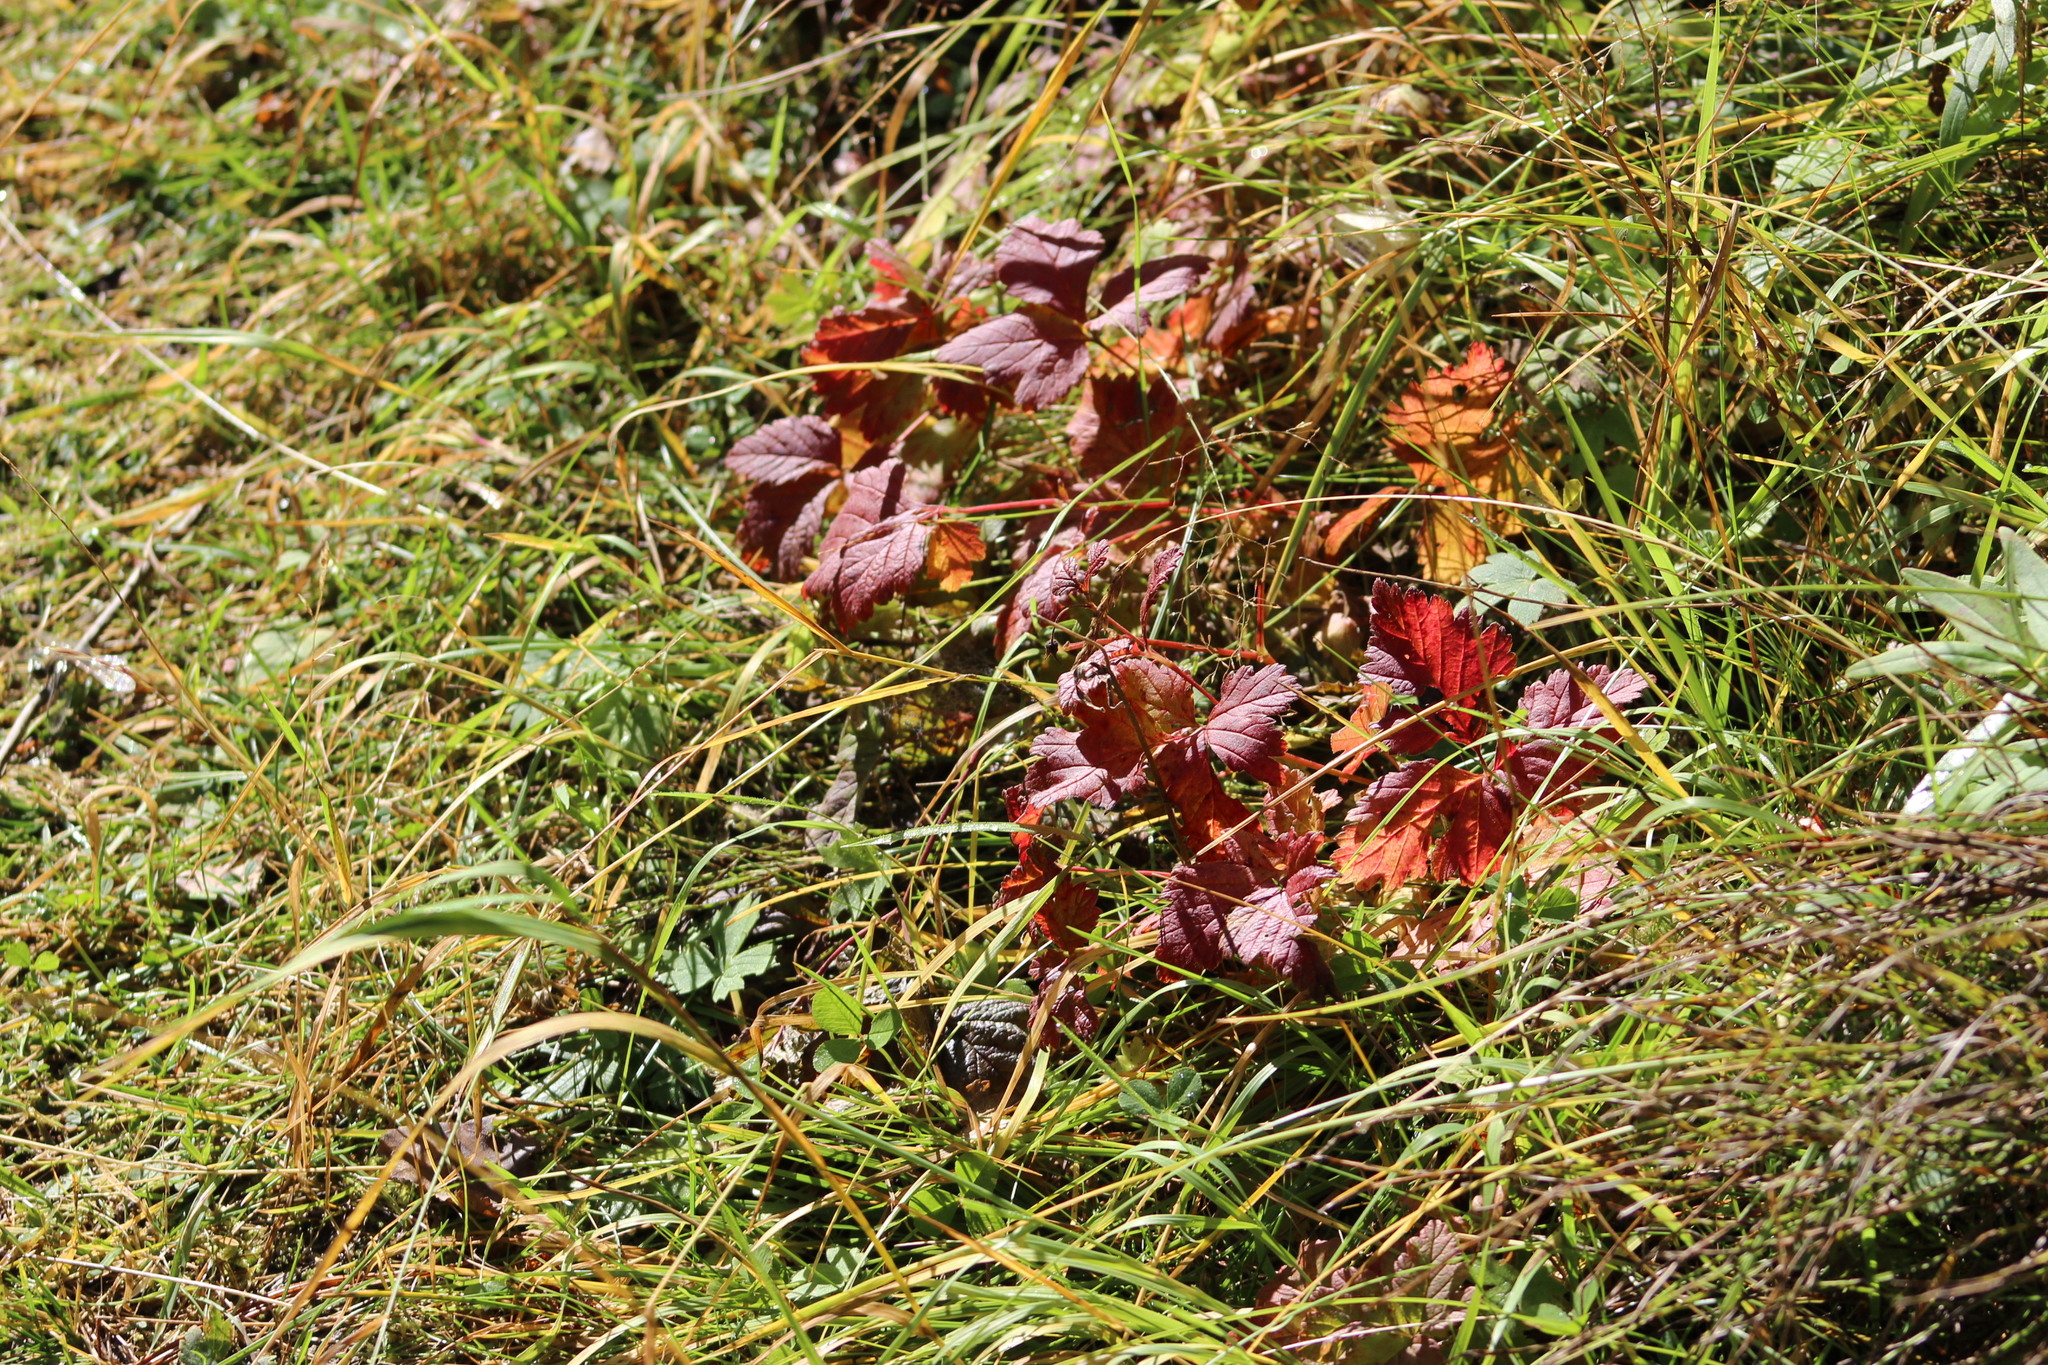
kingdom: Plantae
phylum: Tracheophyta
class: Magnoliopsida
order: Rosales
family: Rosaceae
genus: Rubus
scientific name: Rubus arcticus
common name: Arctic bramble
